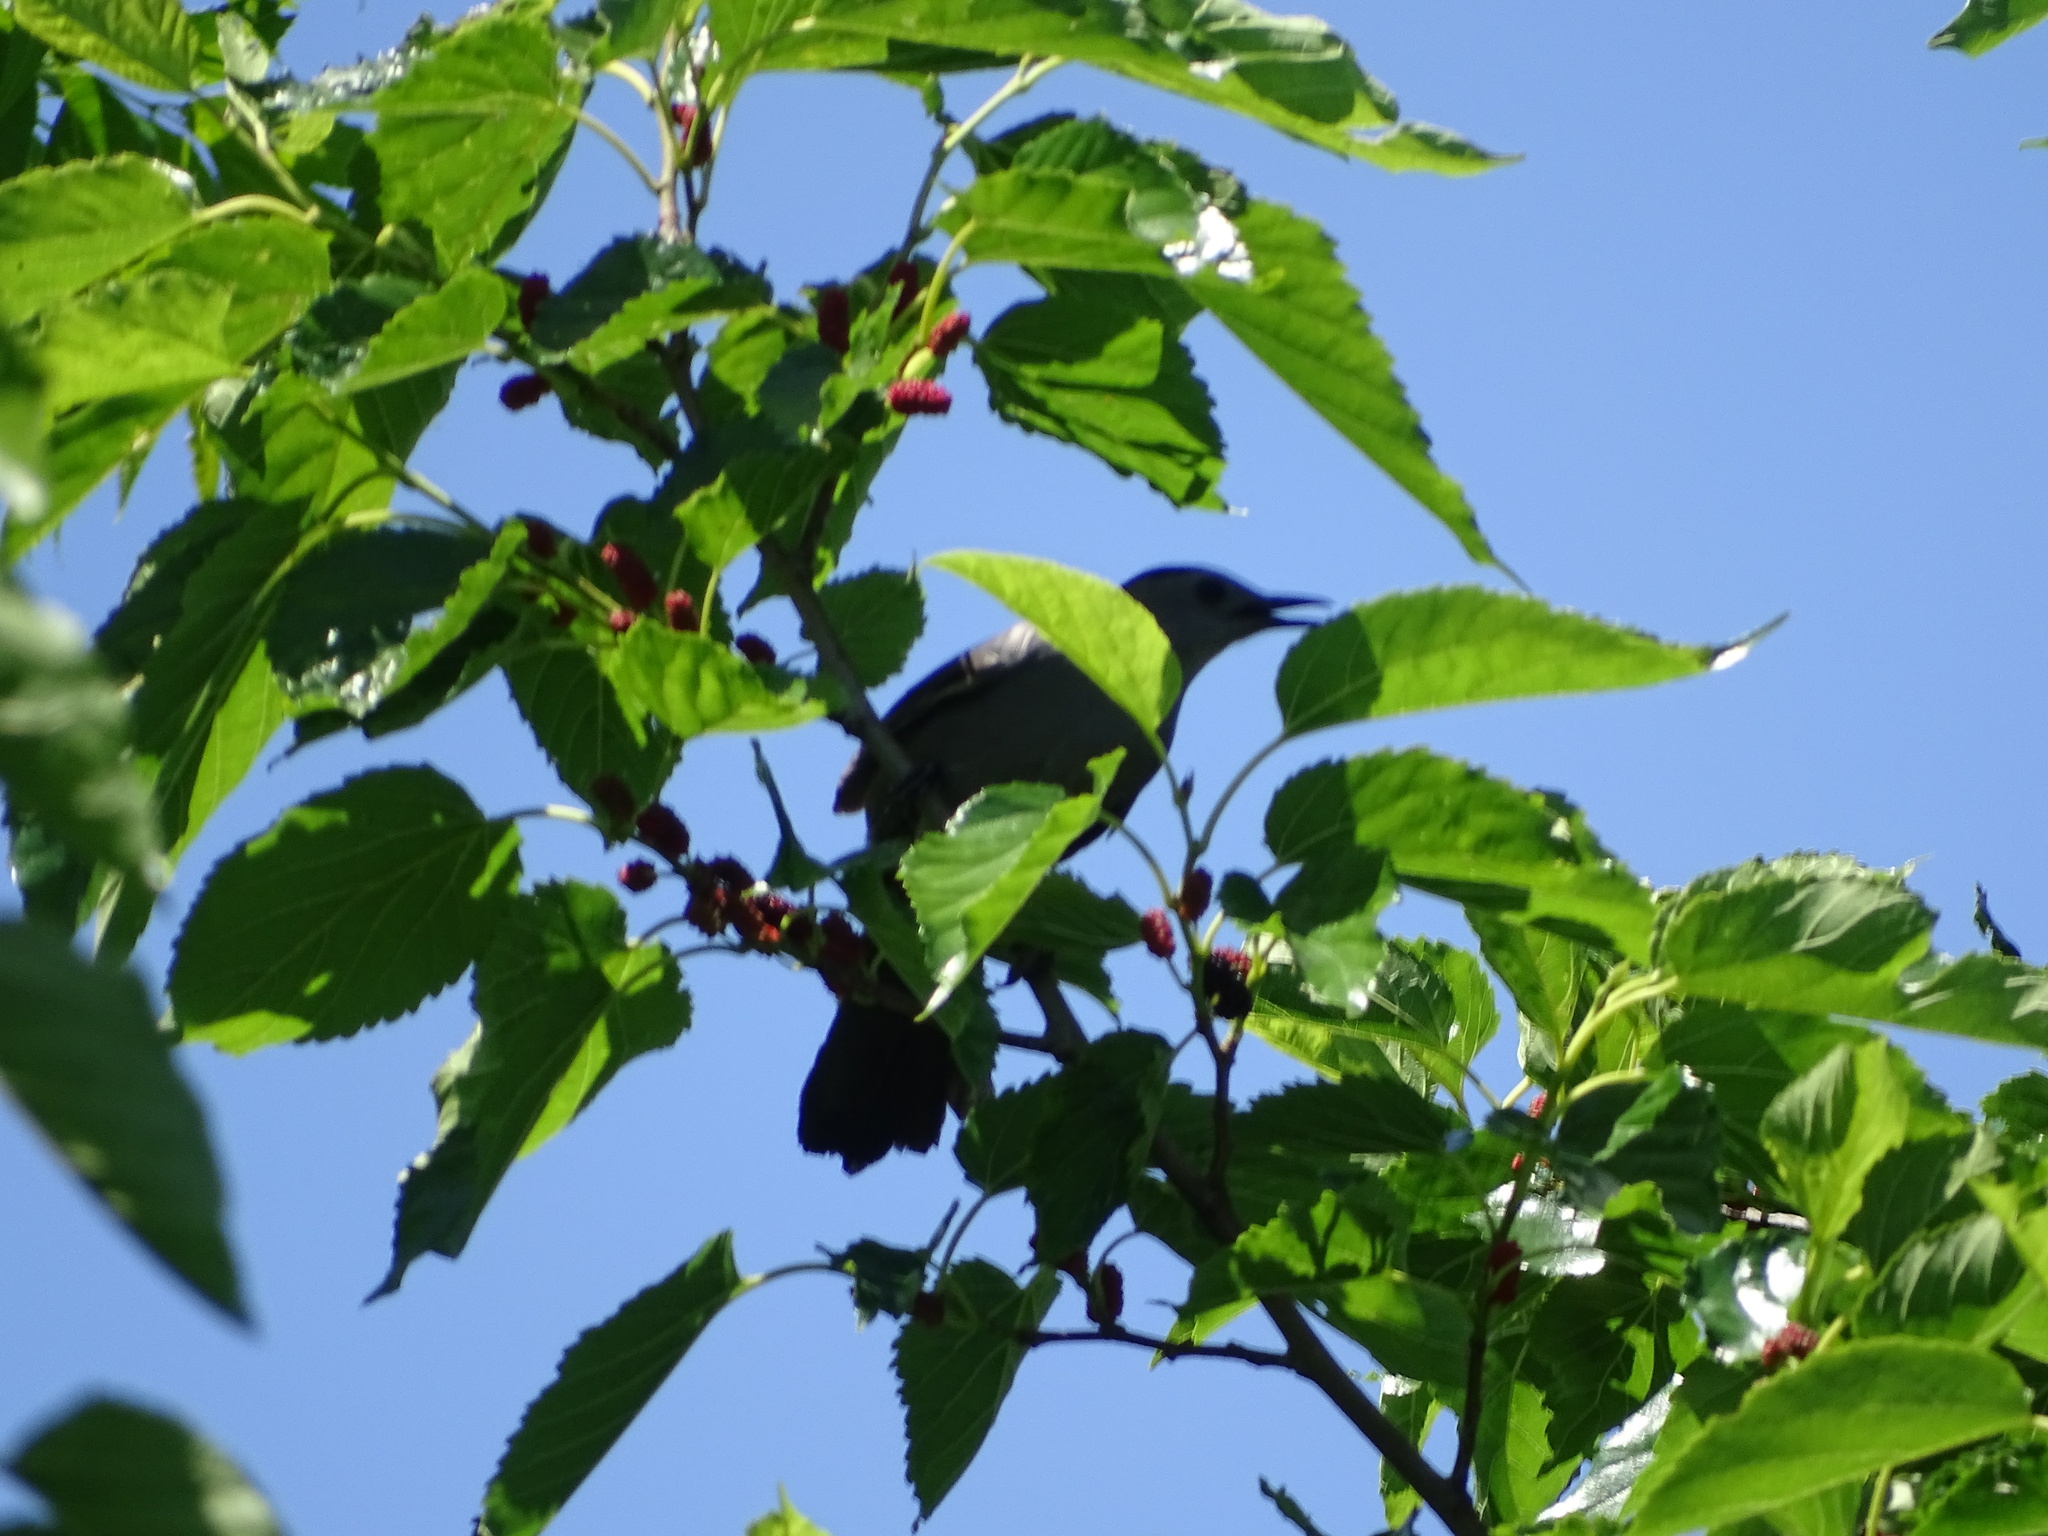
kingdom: Animalia
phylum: Chordata
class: Aves
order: Passeriformes
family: Mimidae
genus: Dumetella
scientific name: Dumetella carolinensis
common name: Gray catbird
